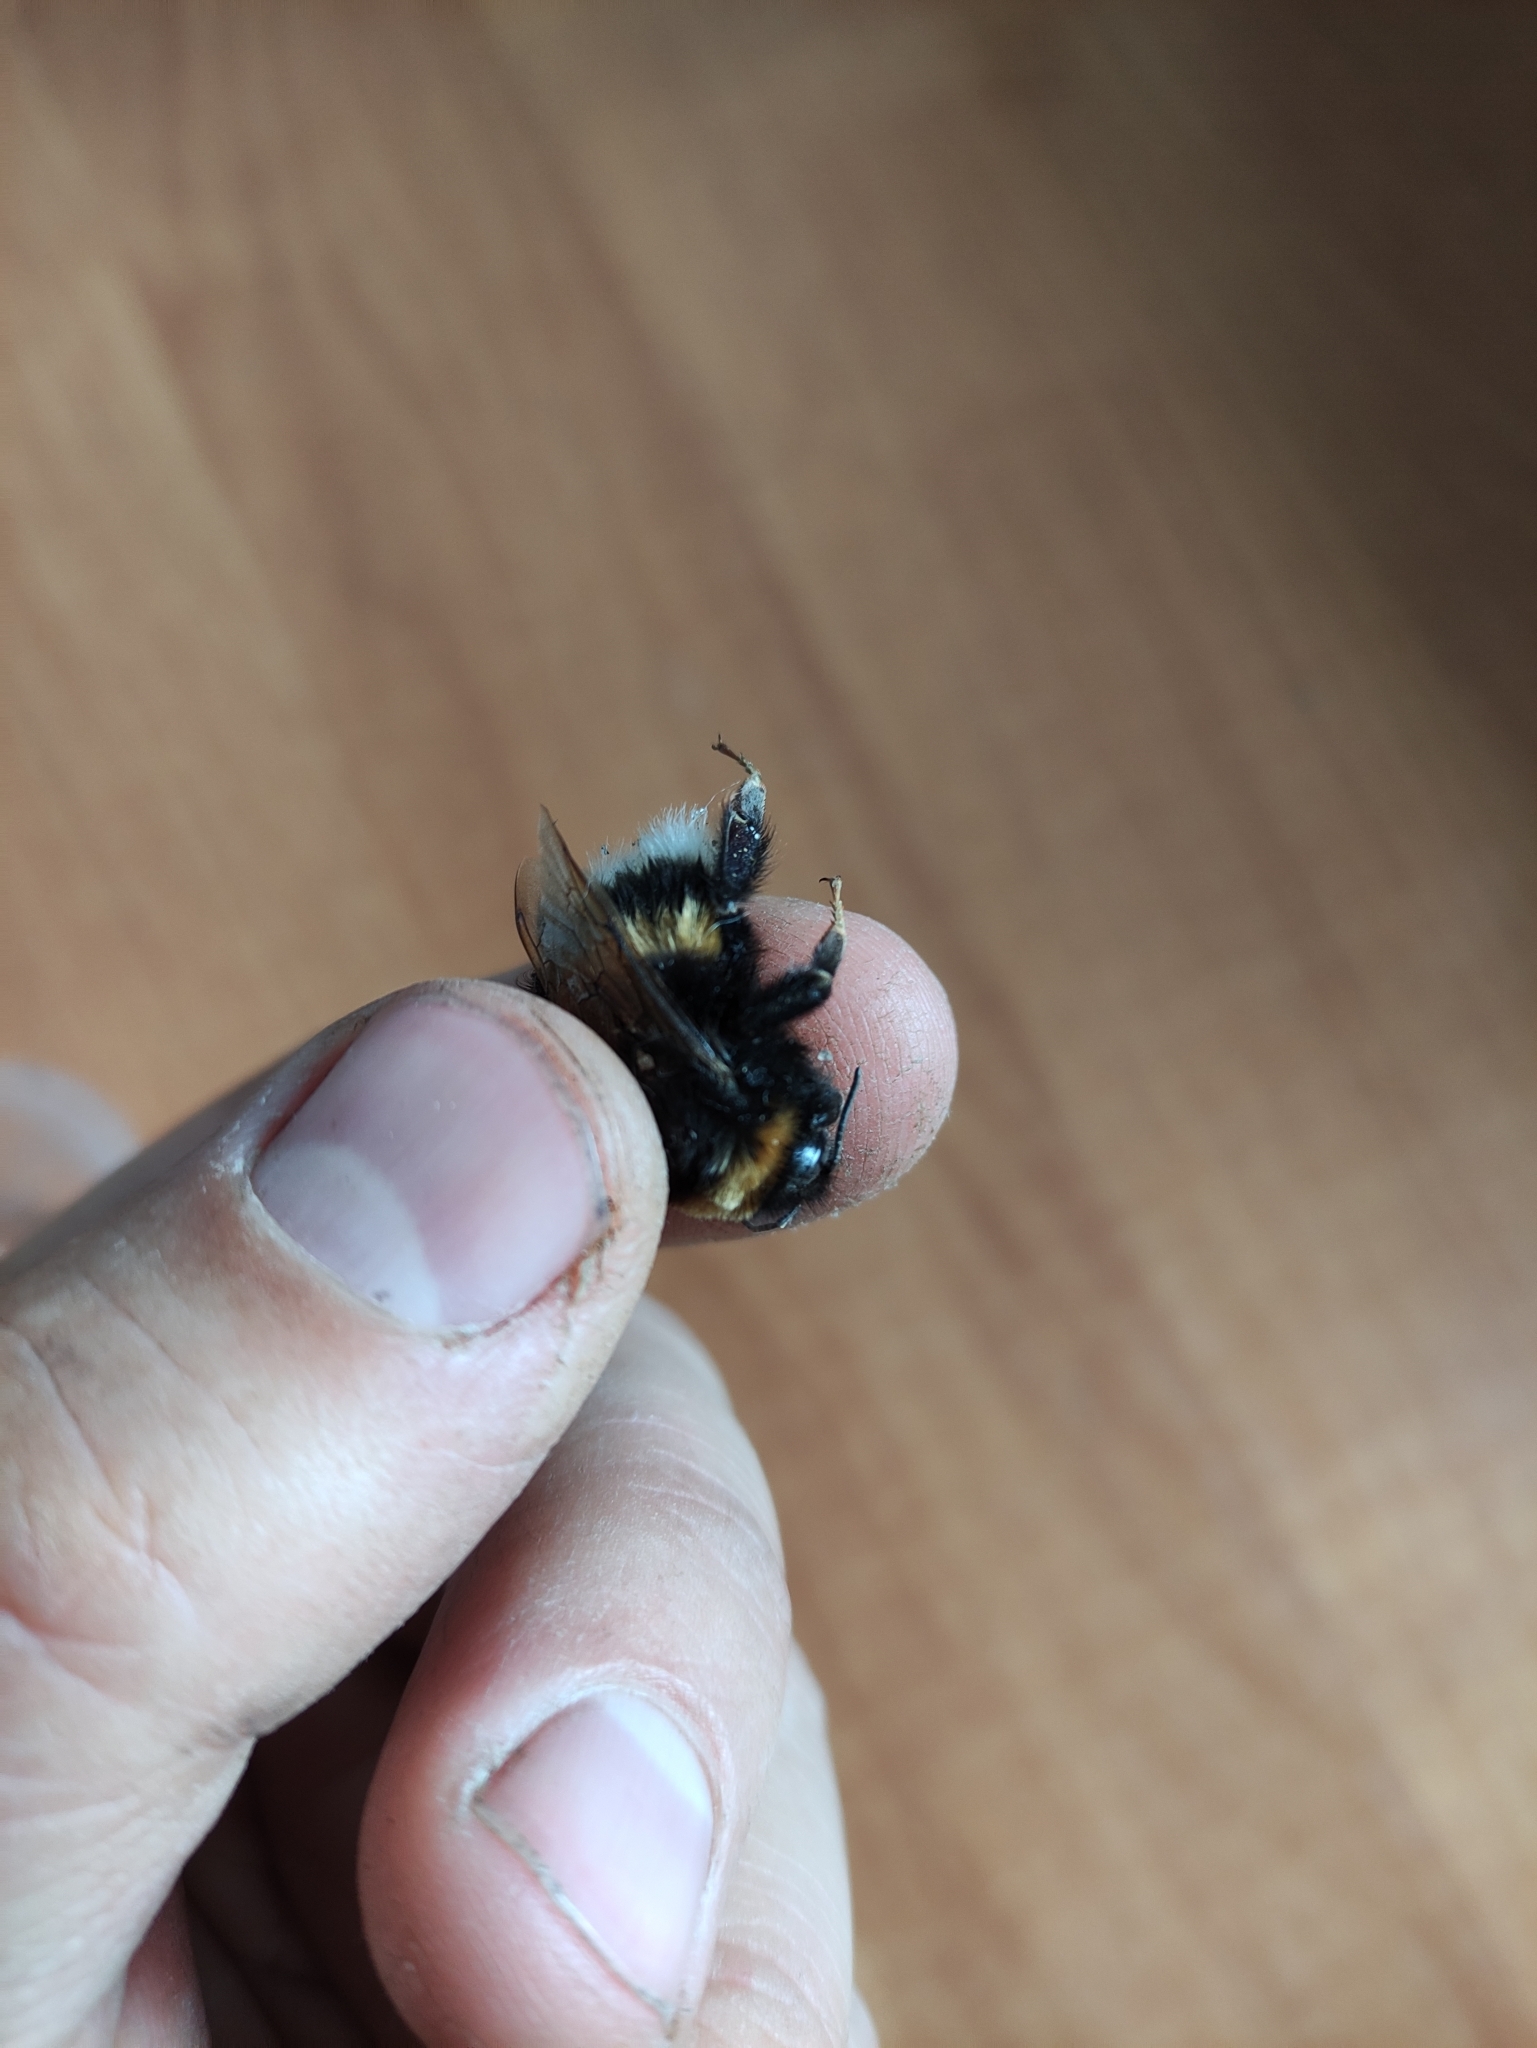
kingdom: Animalia
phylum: Arthropoda
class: Insecta
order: Hymenoptera
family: Apidae
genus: Bombus
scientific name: Bombus
